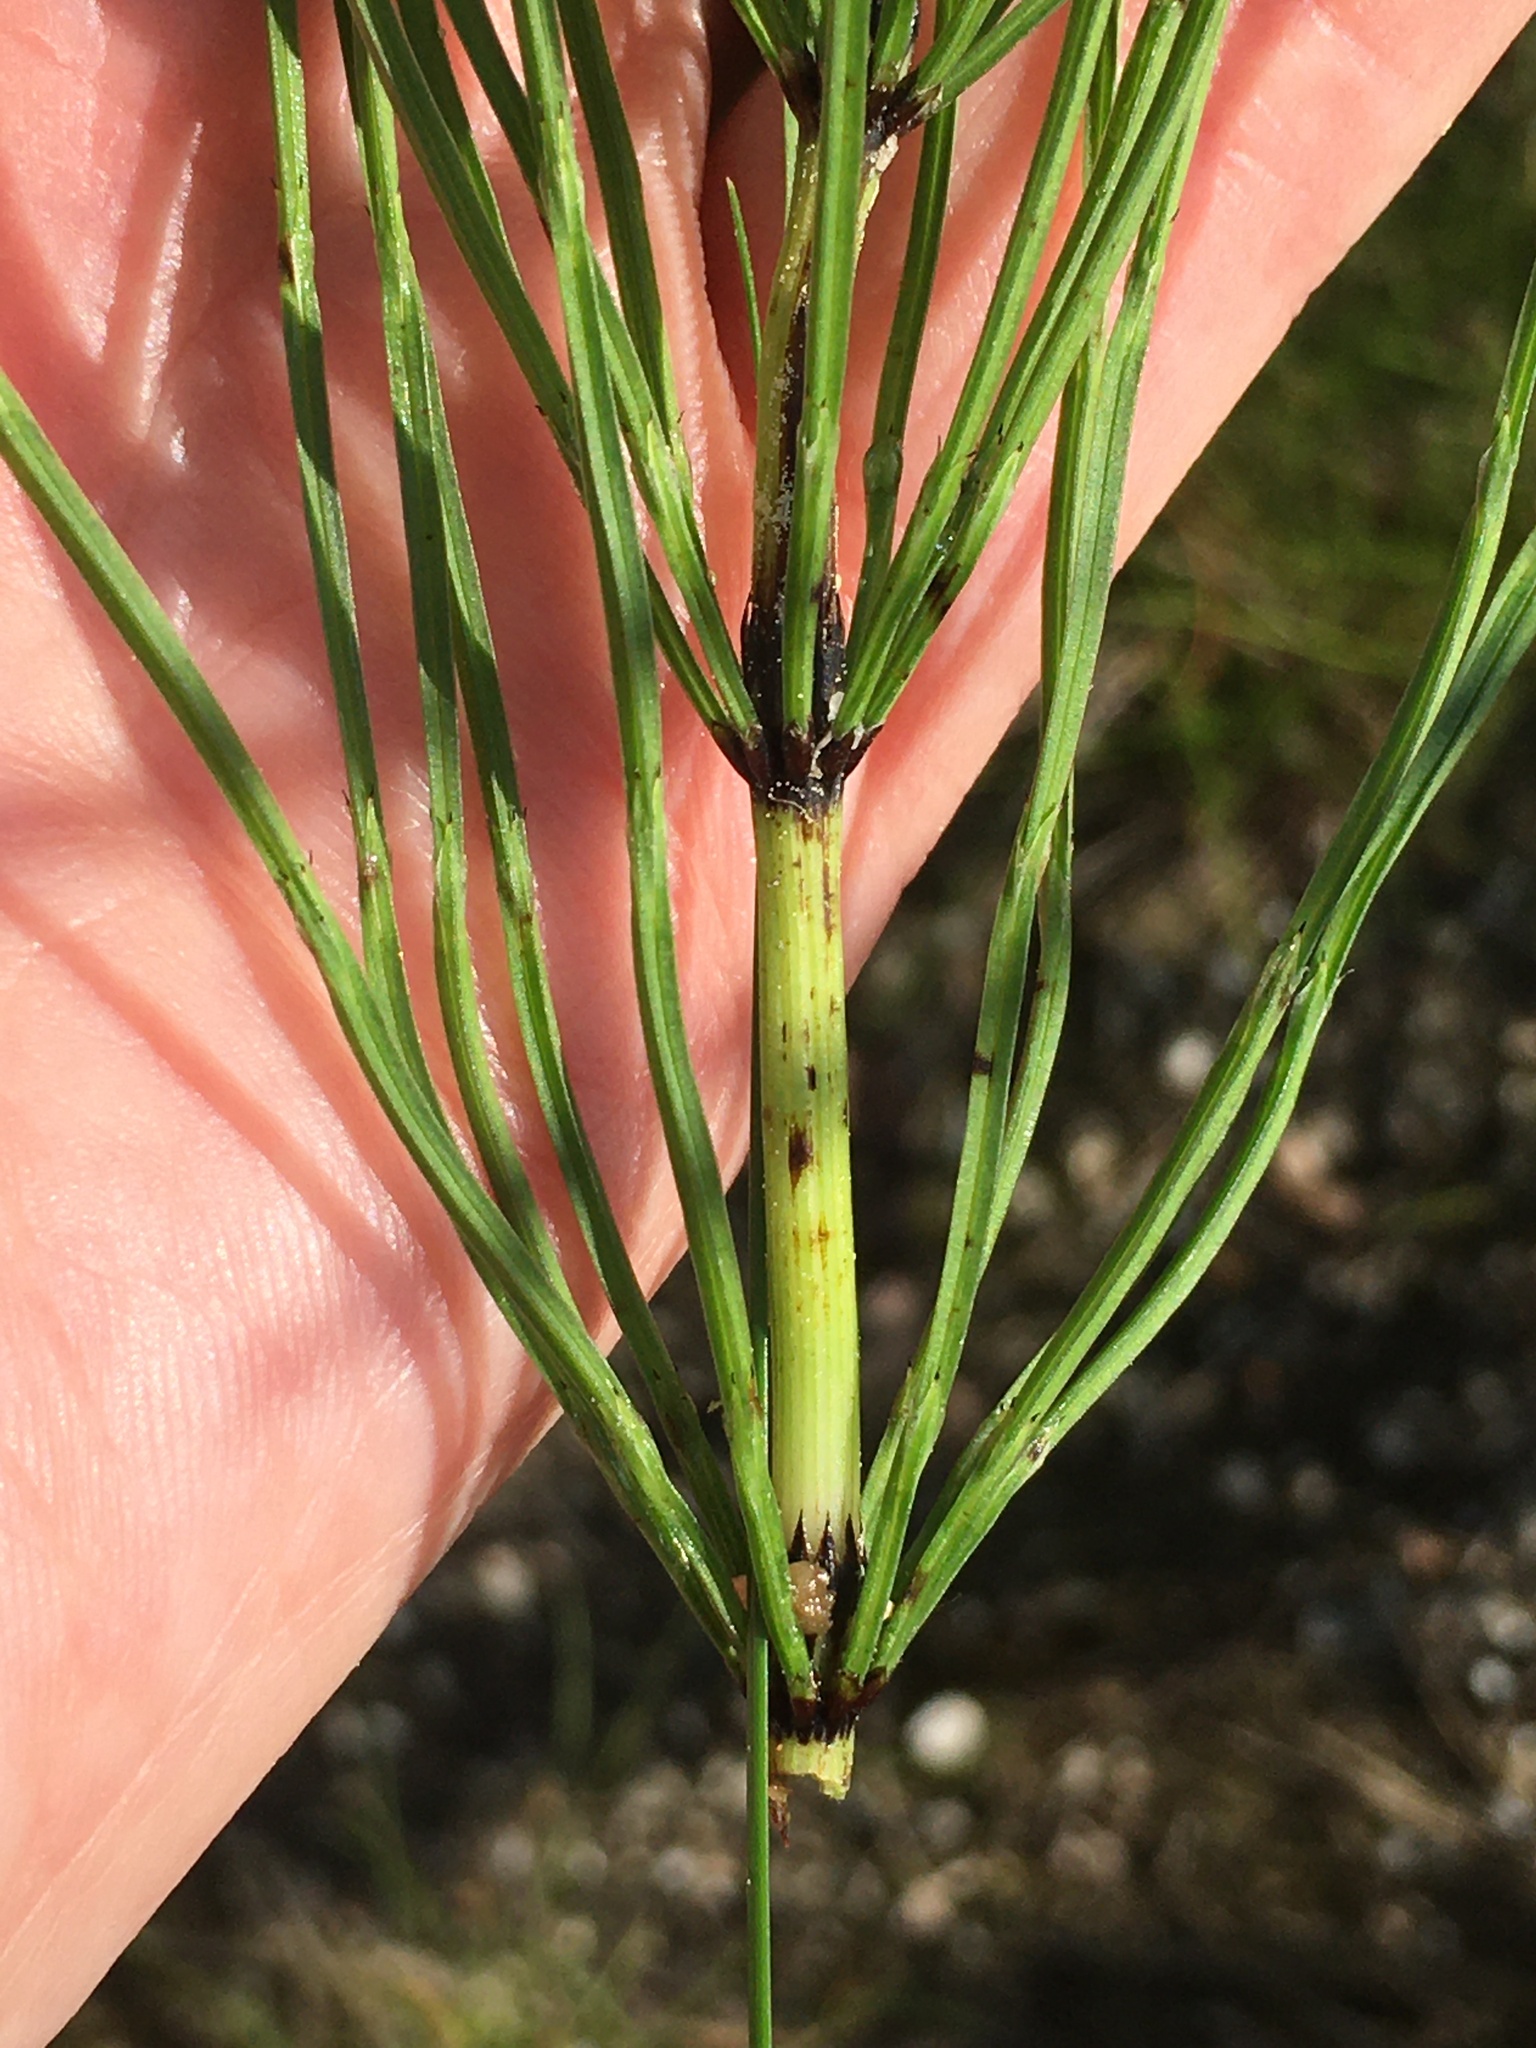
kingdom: Plantae
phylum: Tracheophyta
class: Polypodiopsida
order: Equisetales
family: Equisetaceae
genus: Equisetum
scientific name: Equisetum arvense
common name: Field horsetail
